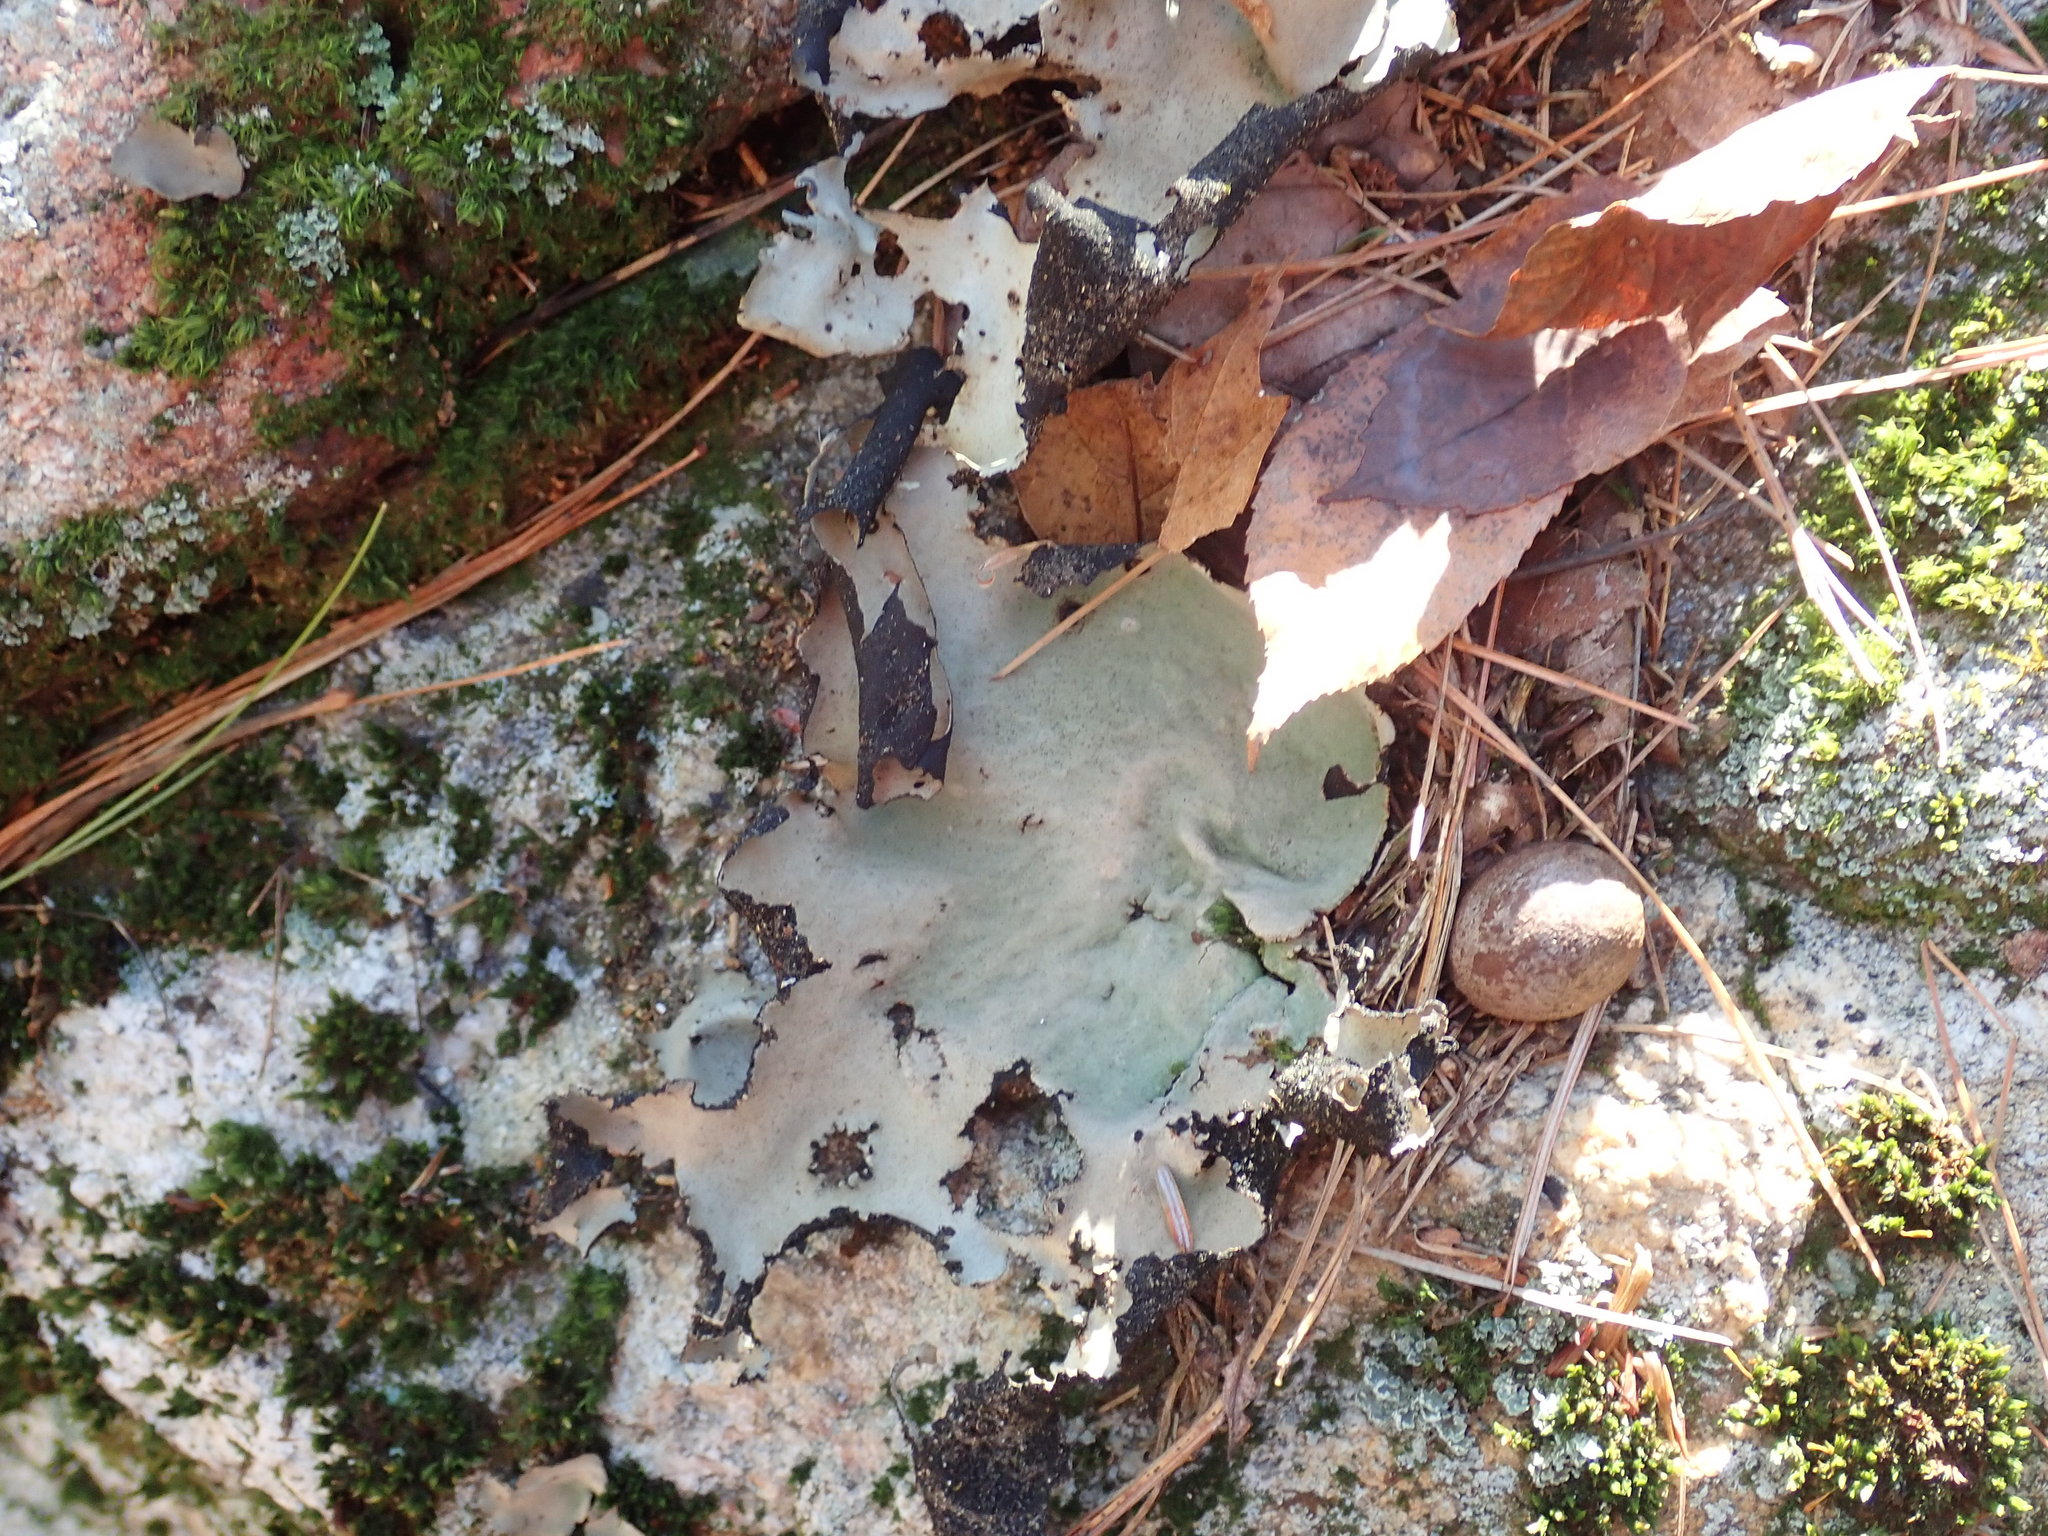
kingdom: Fungi
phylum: Ascomycota
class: Lecanoromycetes
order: Umbilicariales
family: Umbilicariaceae
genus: Umbilicaria
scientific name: Umbilicaria mammulata
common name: Smooth rock tripe
